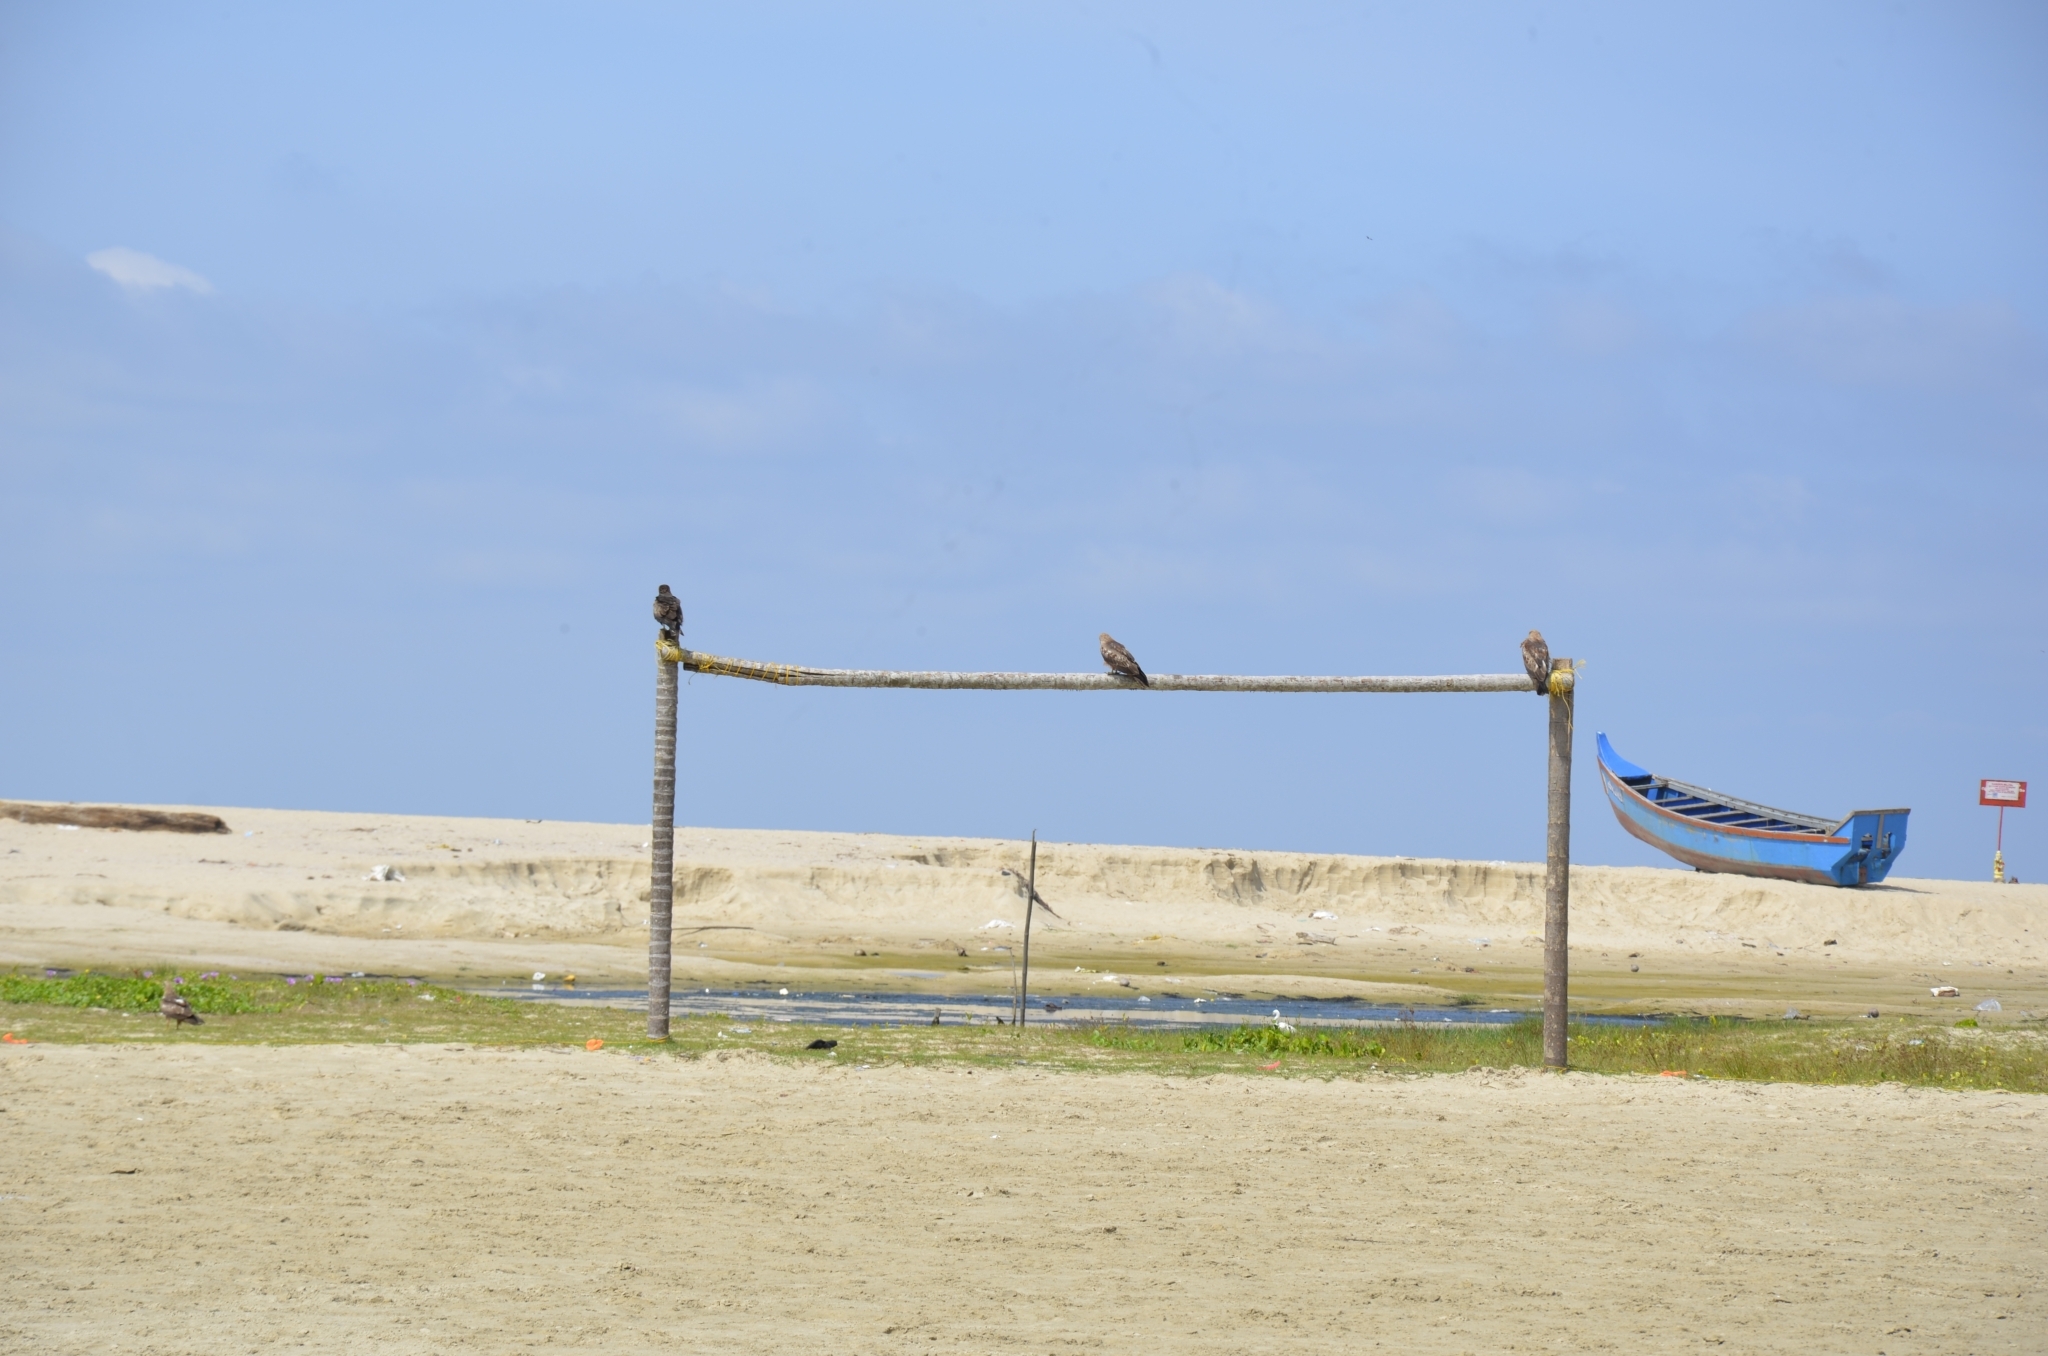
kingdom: Animalia
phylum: Chordata
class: Aves
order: Accipitriformes
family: Accipitridae
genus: Milvus
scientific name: Milvus migrans
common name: Black kite
